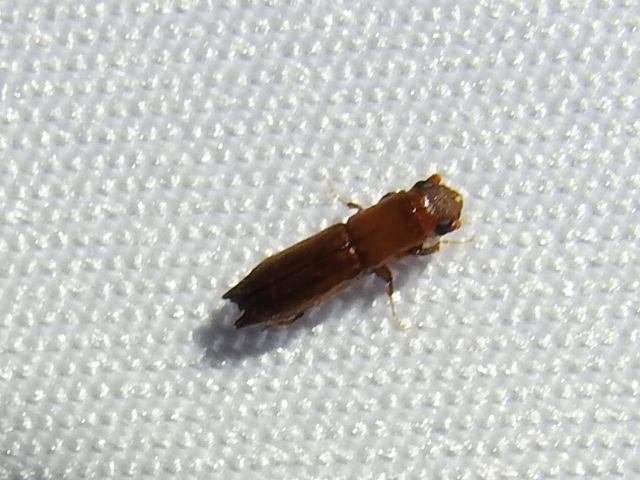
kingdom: Animalia
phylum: Arthropoda
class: Insecta
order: Coleoptera
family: Curculionidae
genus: Euplatypus
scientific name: Euplatypus compositus
